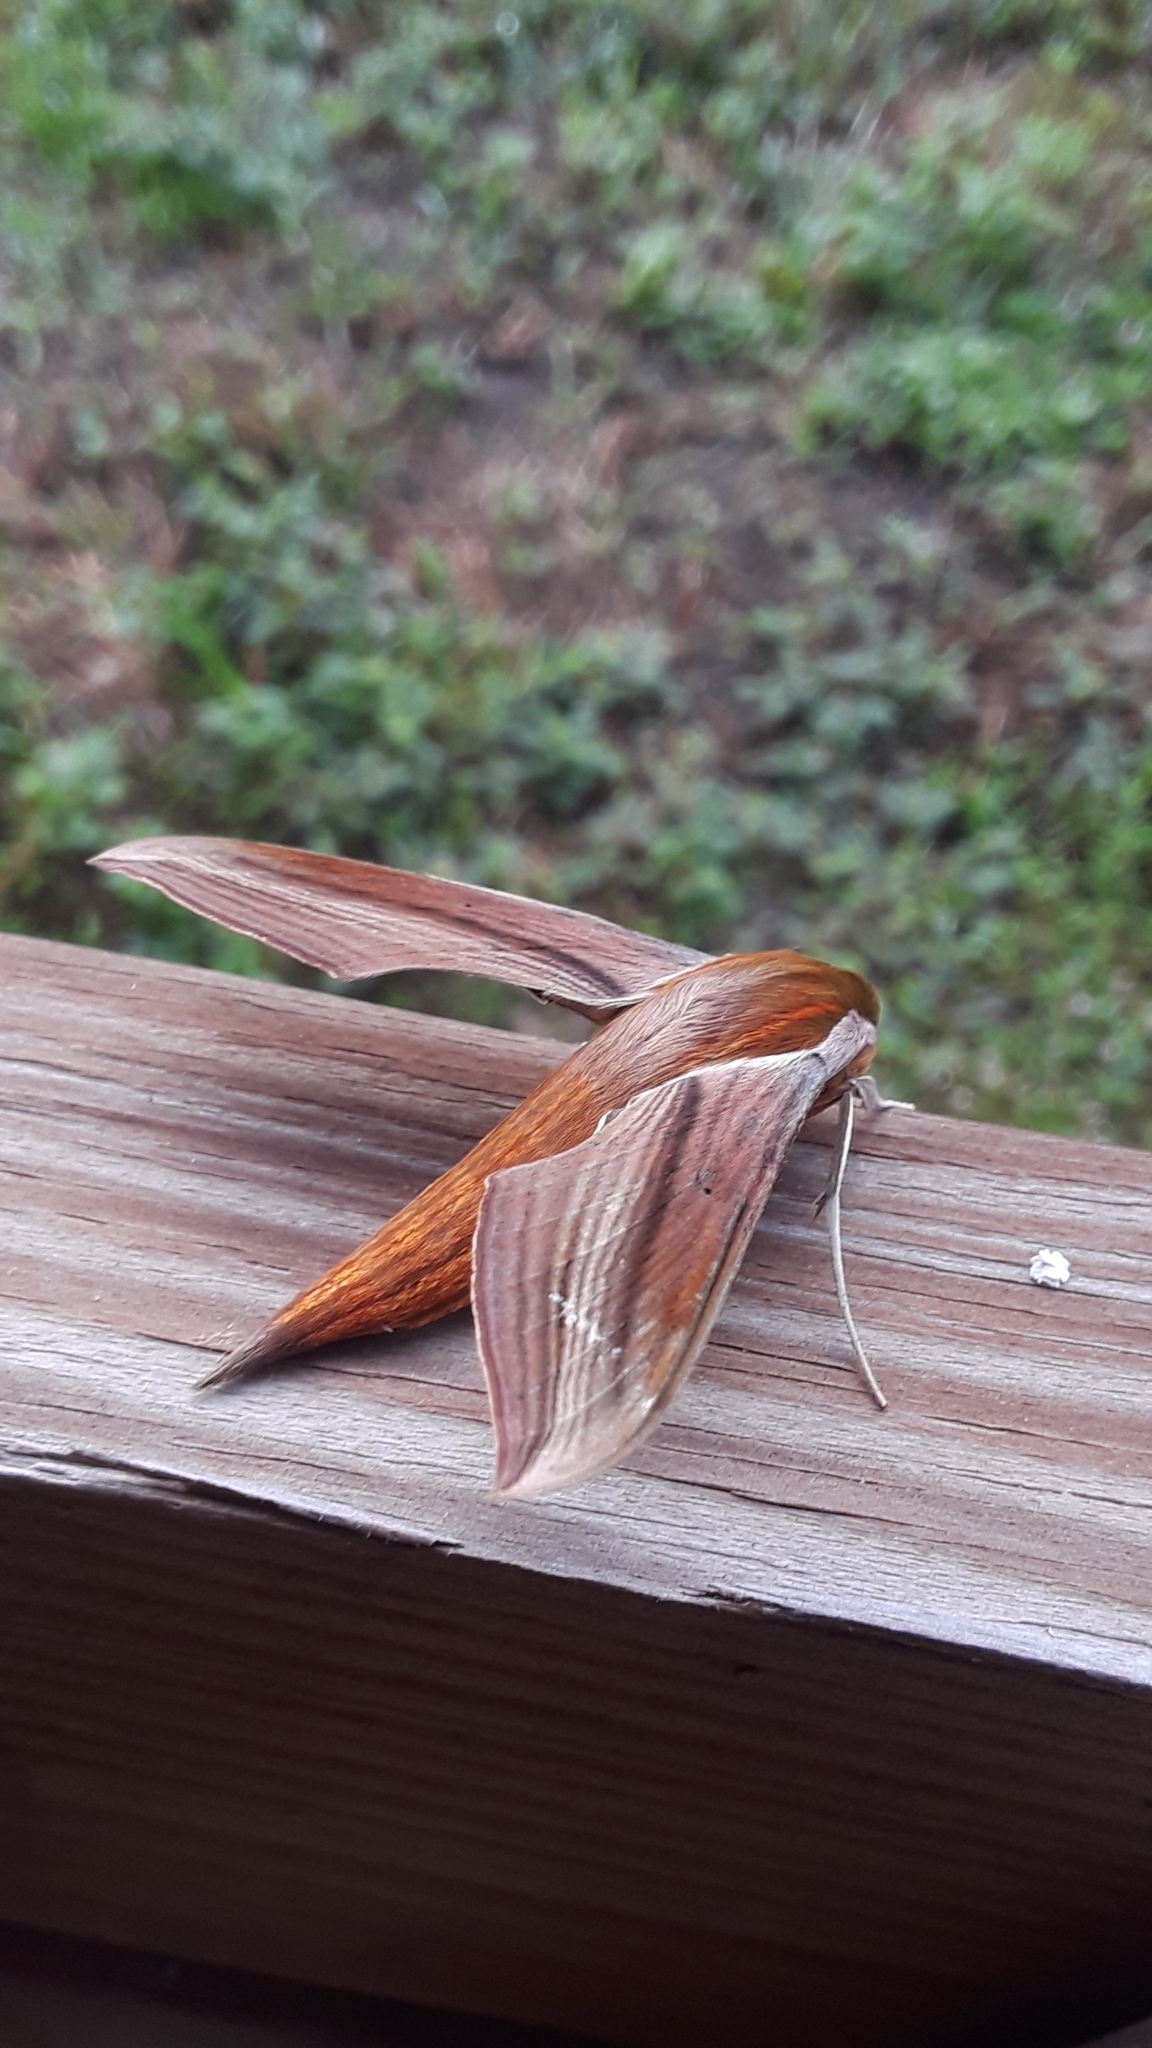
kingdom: Animalia
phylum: Arthropoda
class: Insecta
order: Lepidoptera
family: Sphingidae
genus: Xylophanes
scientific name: Xylophanes tersa
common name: Tersa sphinx
